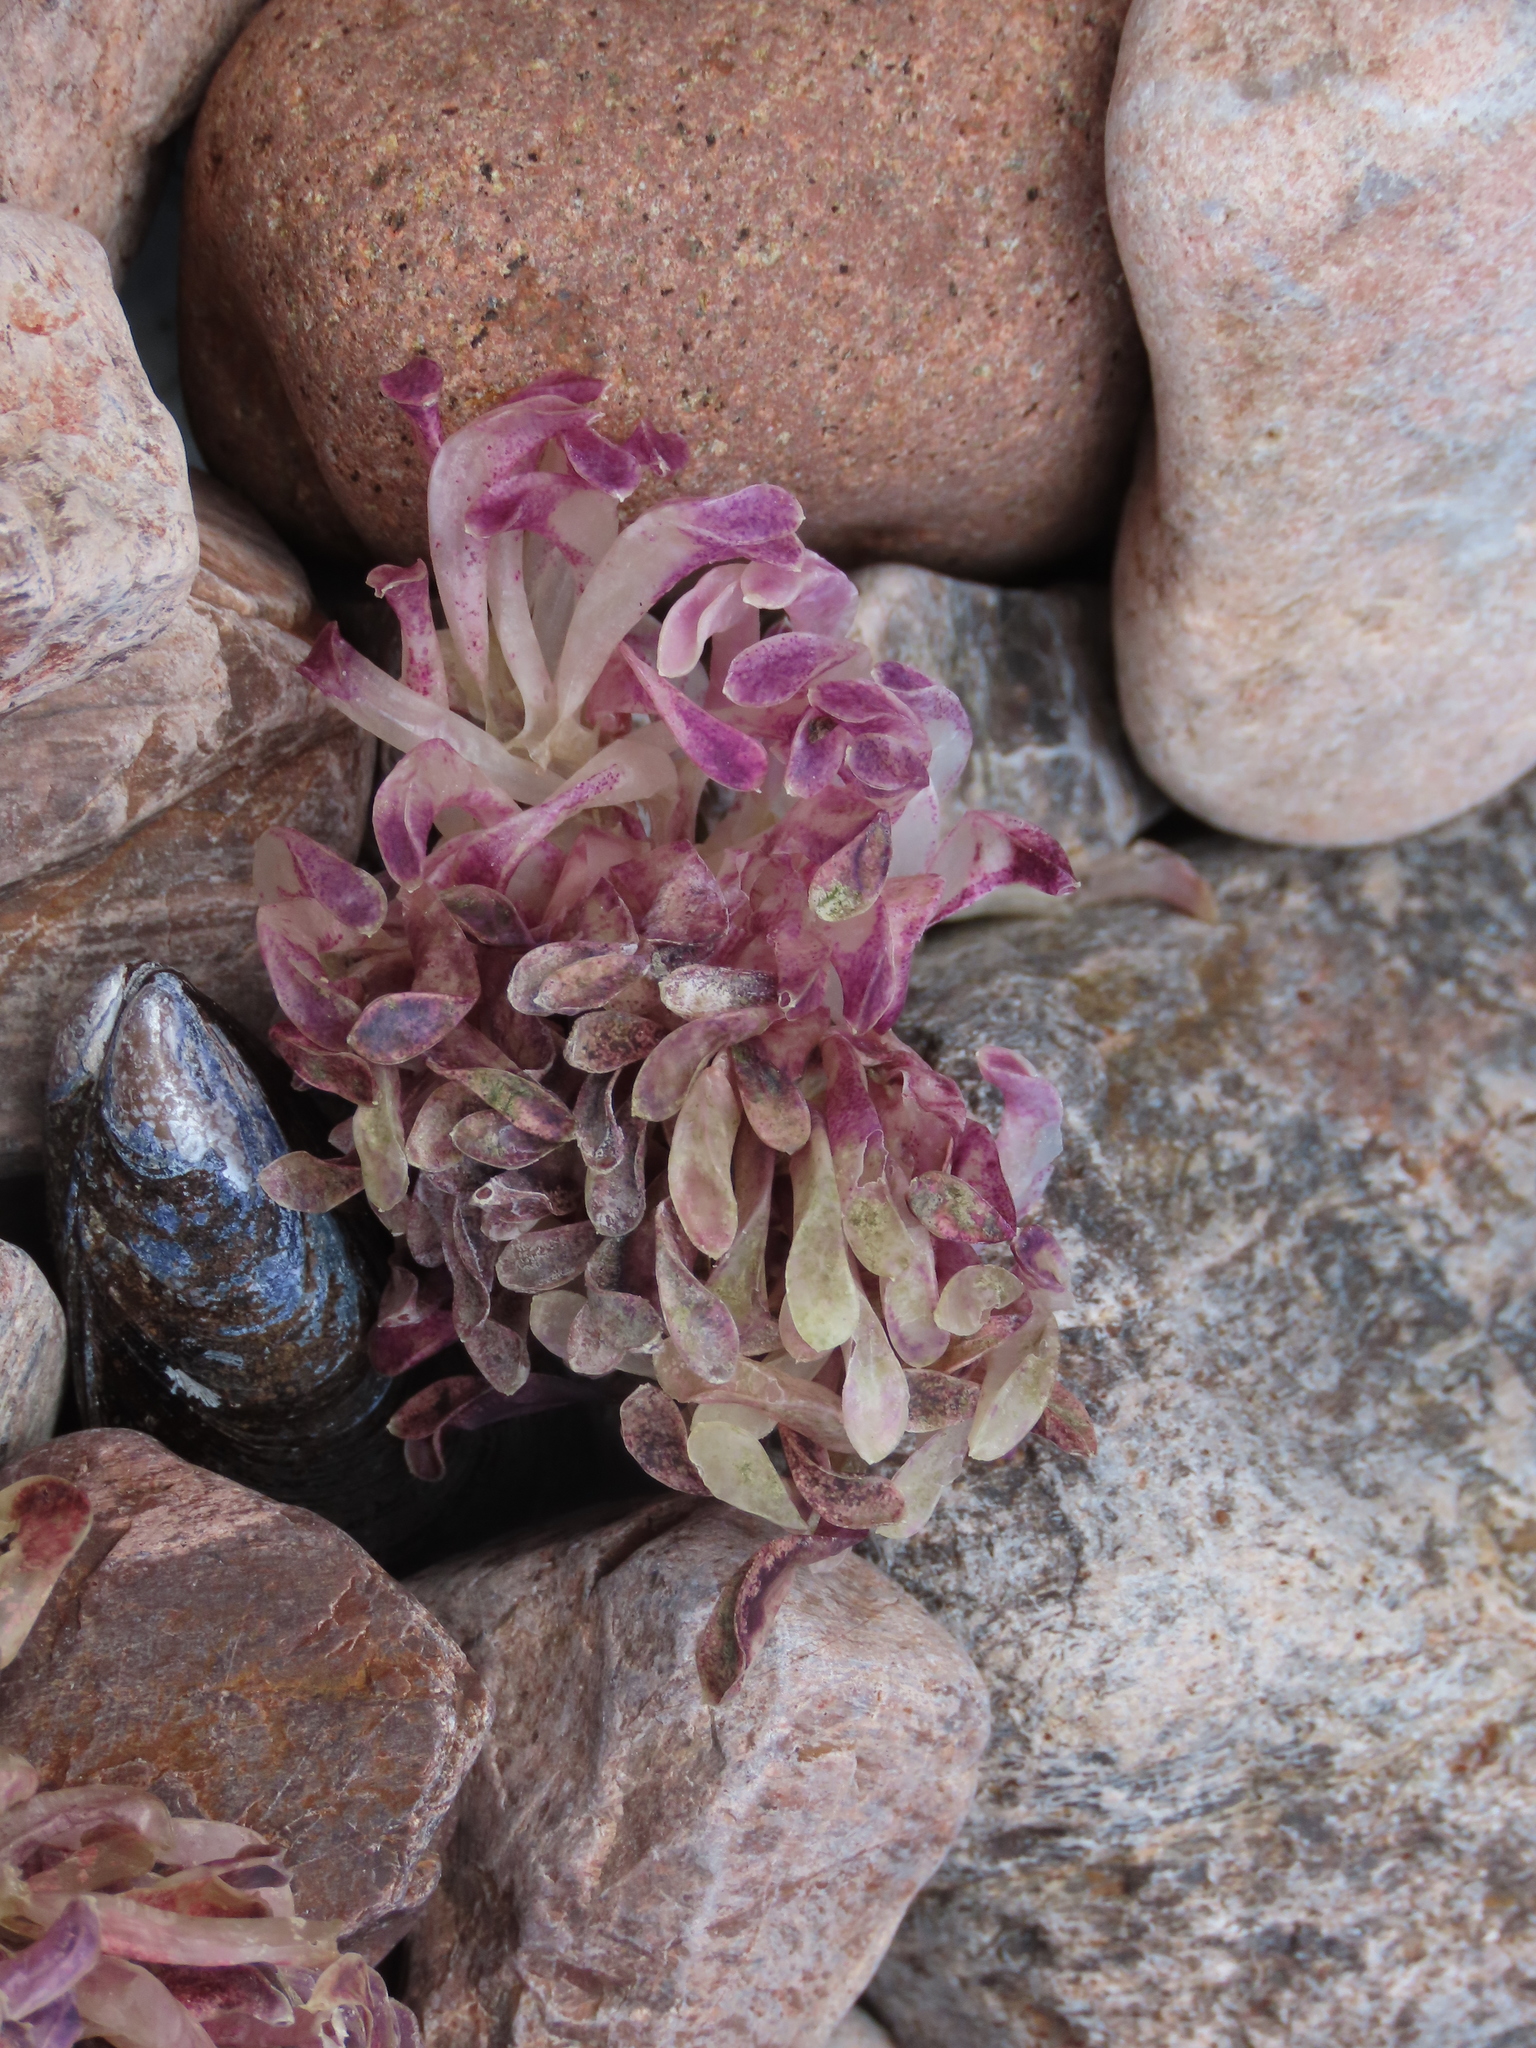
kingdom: Animalia
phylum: Mollusca
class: Gastropoda
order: Neogastropoda
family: Muricidae
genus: Rapana
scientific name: Rapana venosa
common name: Veined rapa whelk
